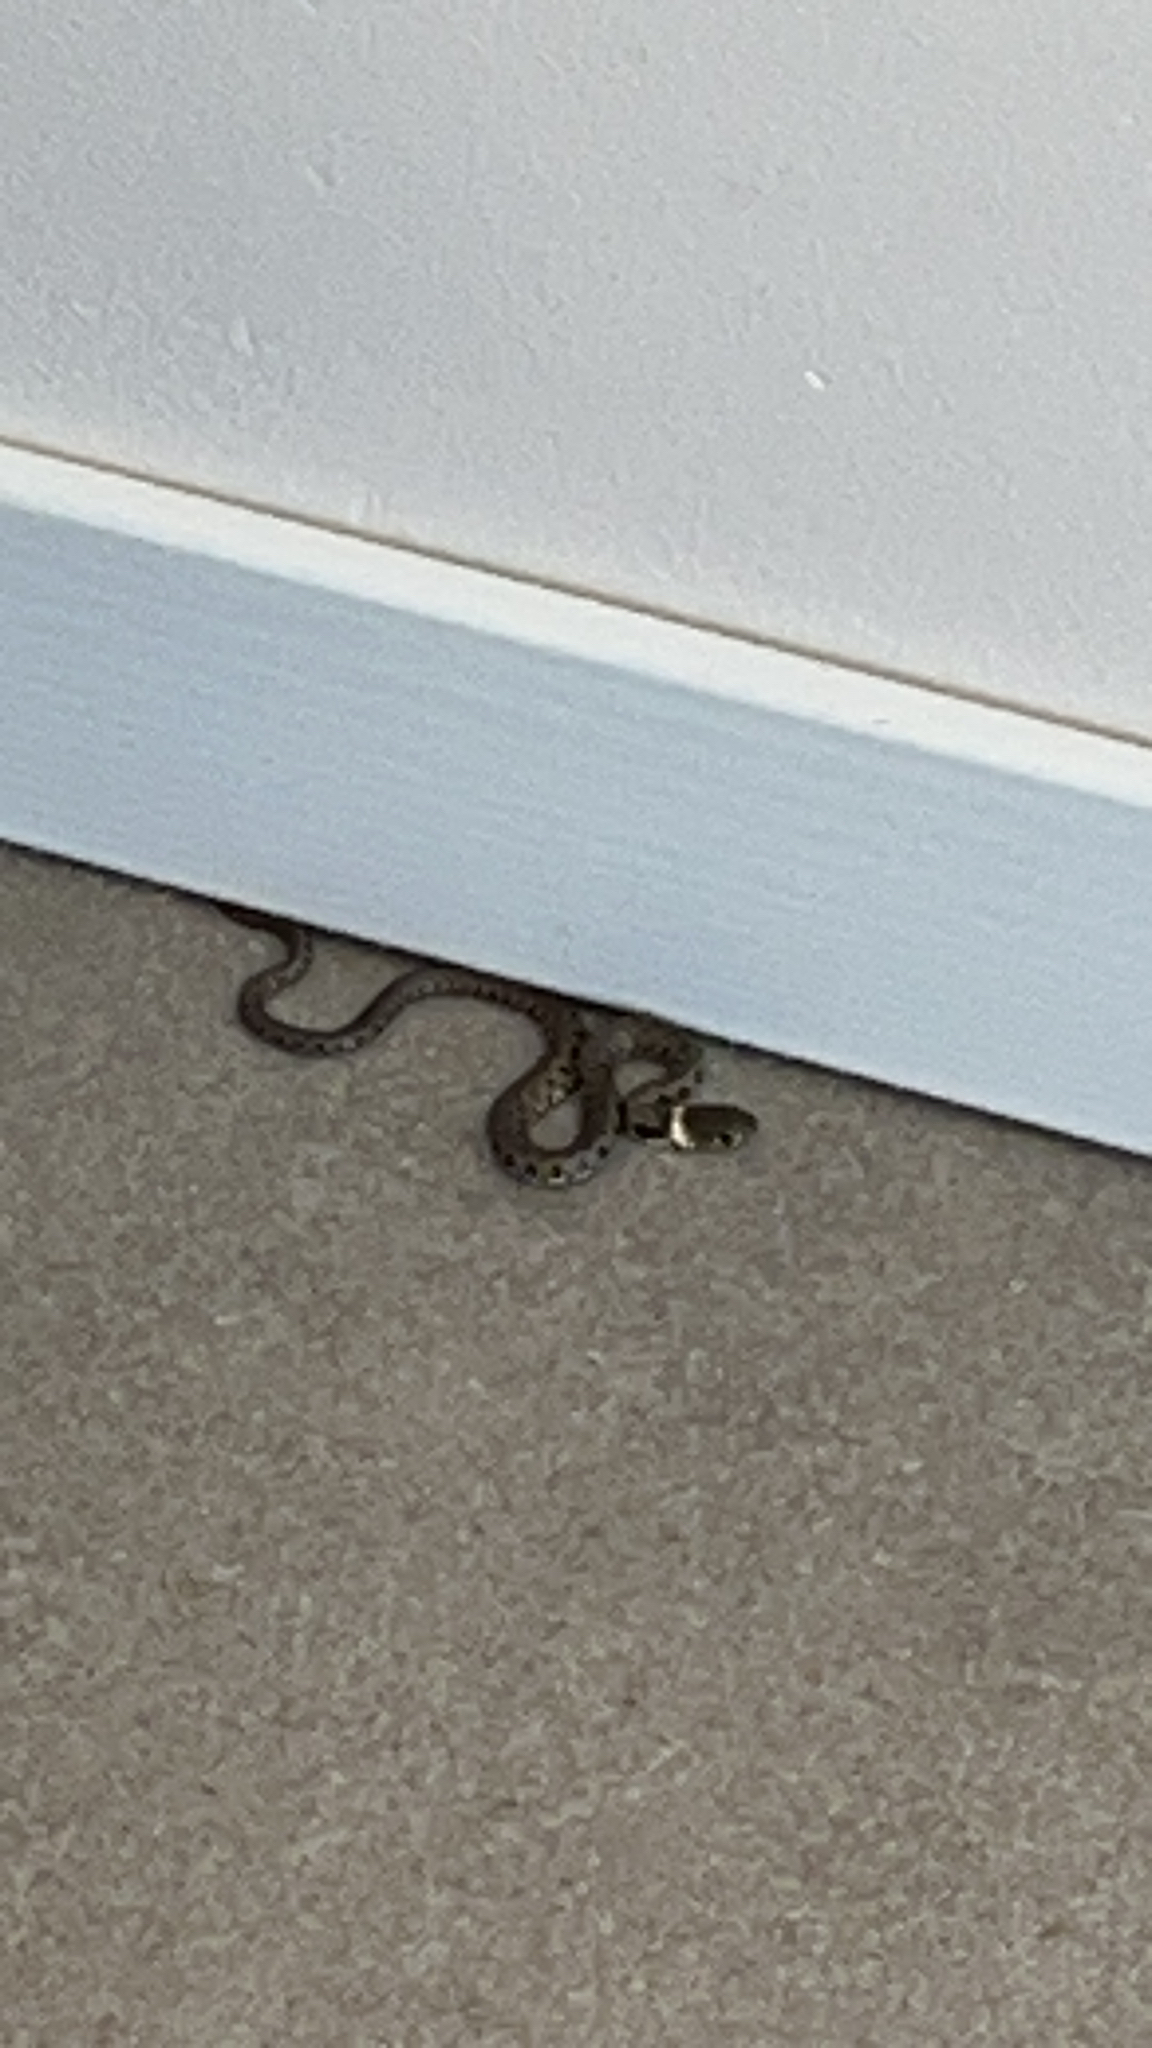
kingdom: Animalia
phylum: Chordata
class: Squamata
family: Colubridae
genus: Natrix
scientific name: Natrix helvetica
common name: Banded grass snake
